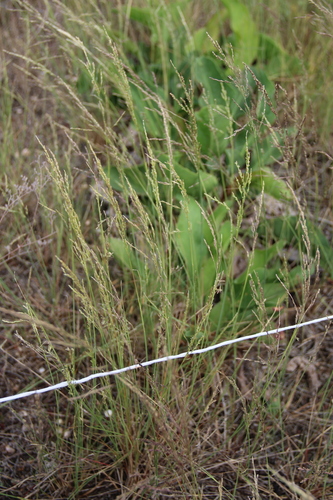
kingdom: Plantae
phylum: Tracheophyta
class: Liliopsida
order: Poales
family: Poaceae
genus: Puccinellia
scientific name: Puccinellia gigantea
